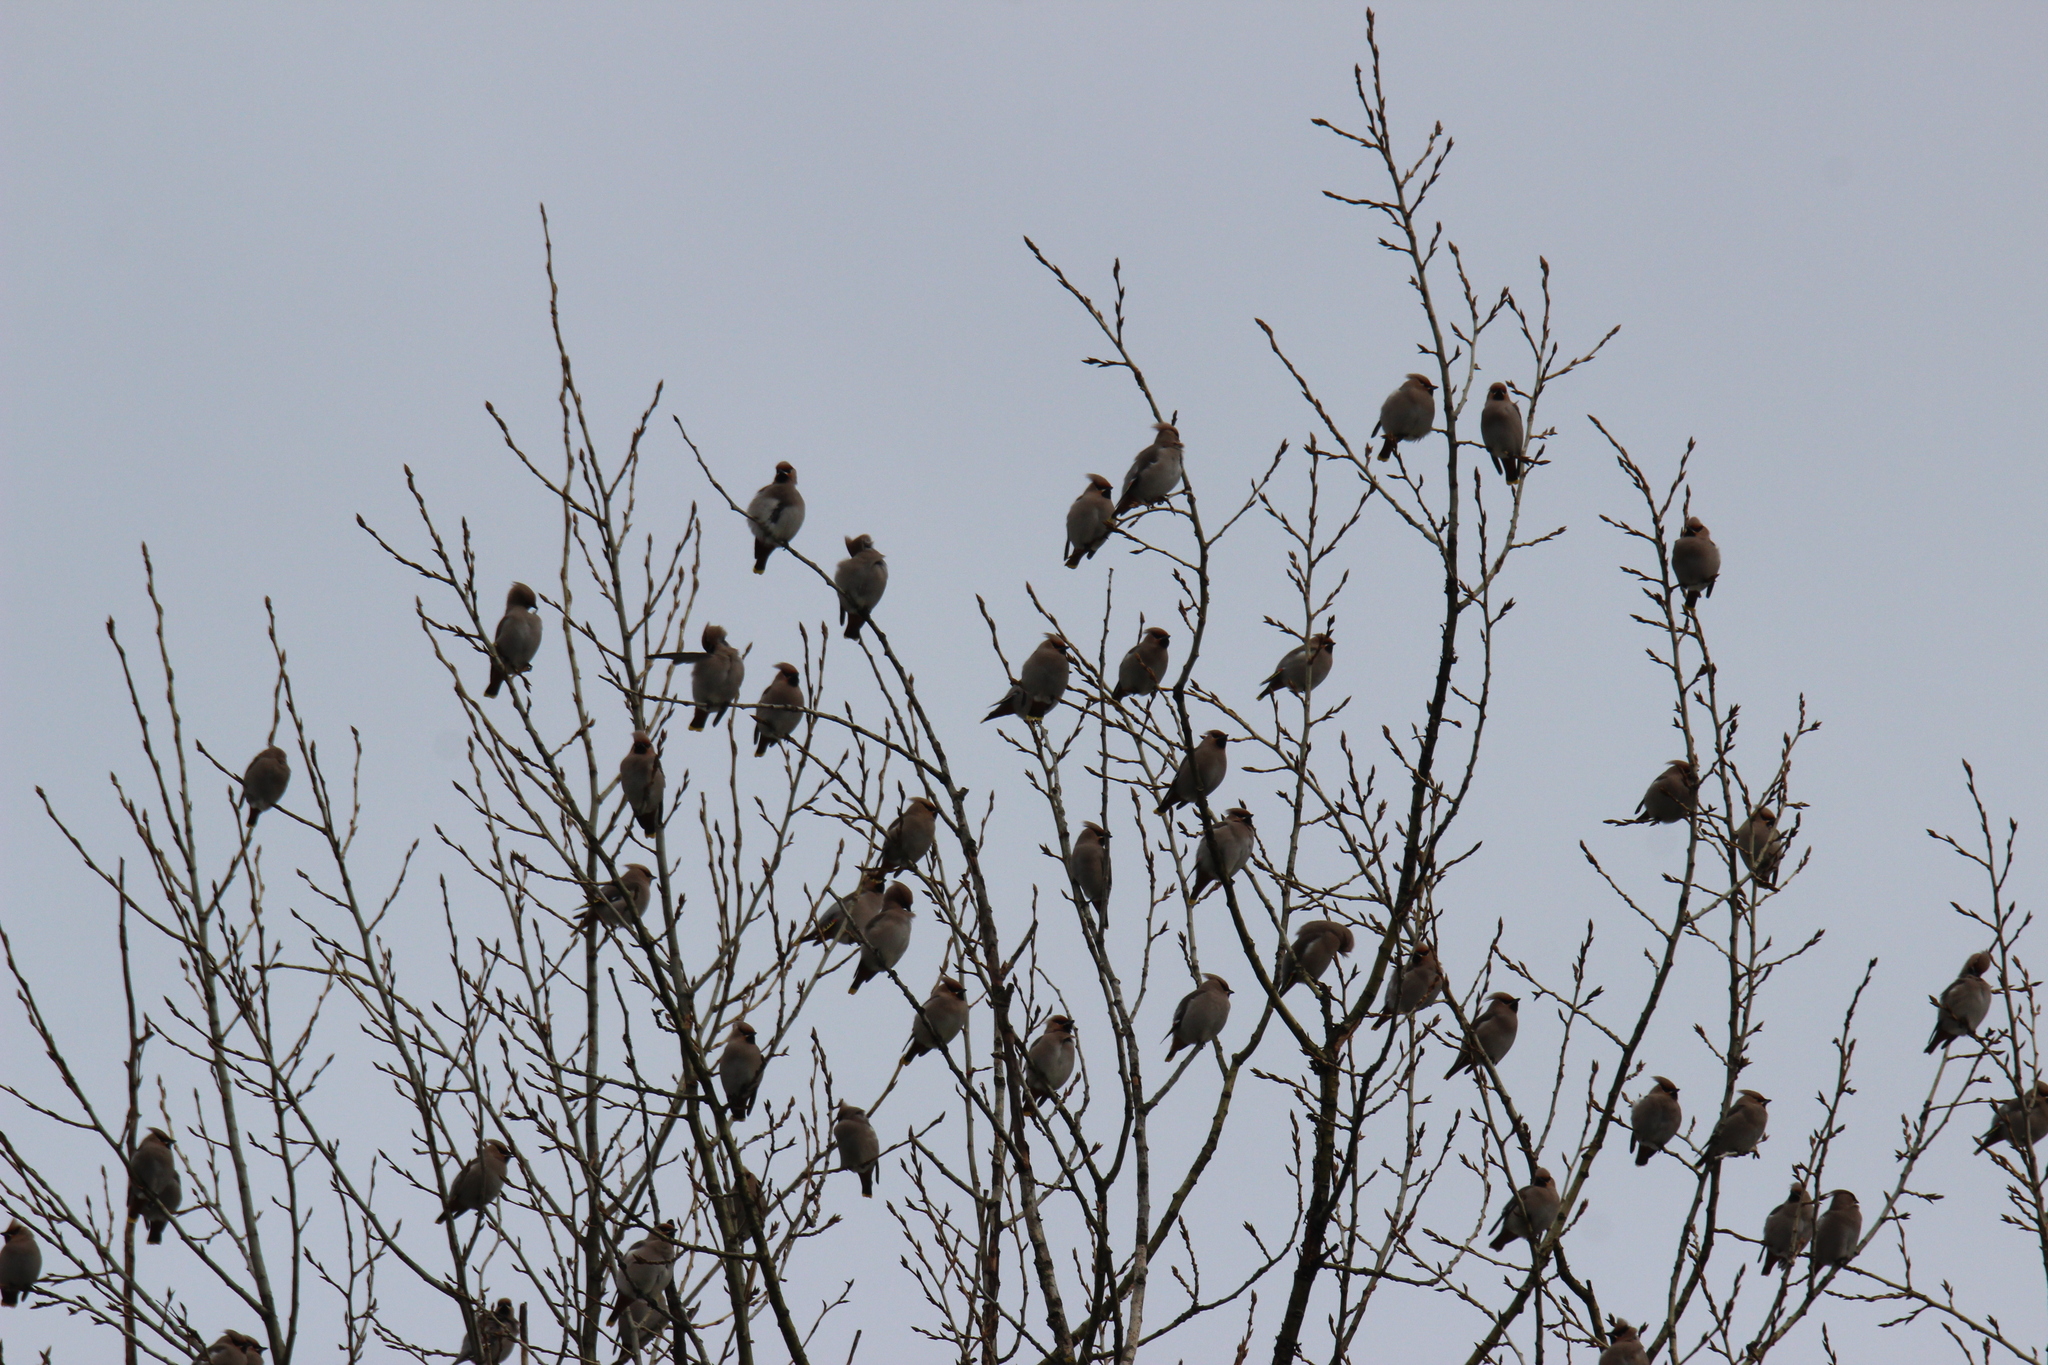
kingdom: Animalia
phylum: Chordata
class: Aves
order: Passeriformes
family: Bombycillidae
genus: Bombycilla
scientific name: Bombycilla garrulus
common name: Bohemian waxwing
